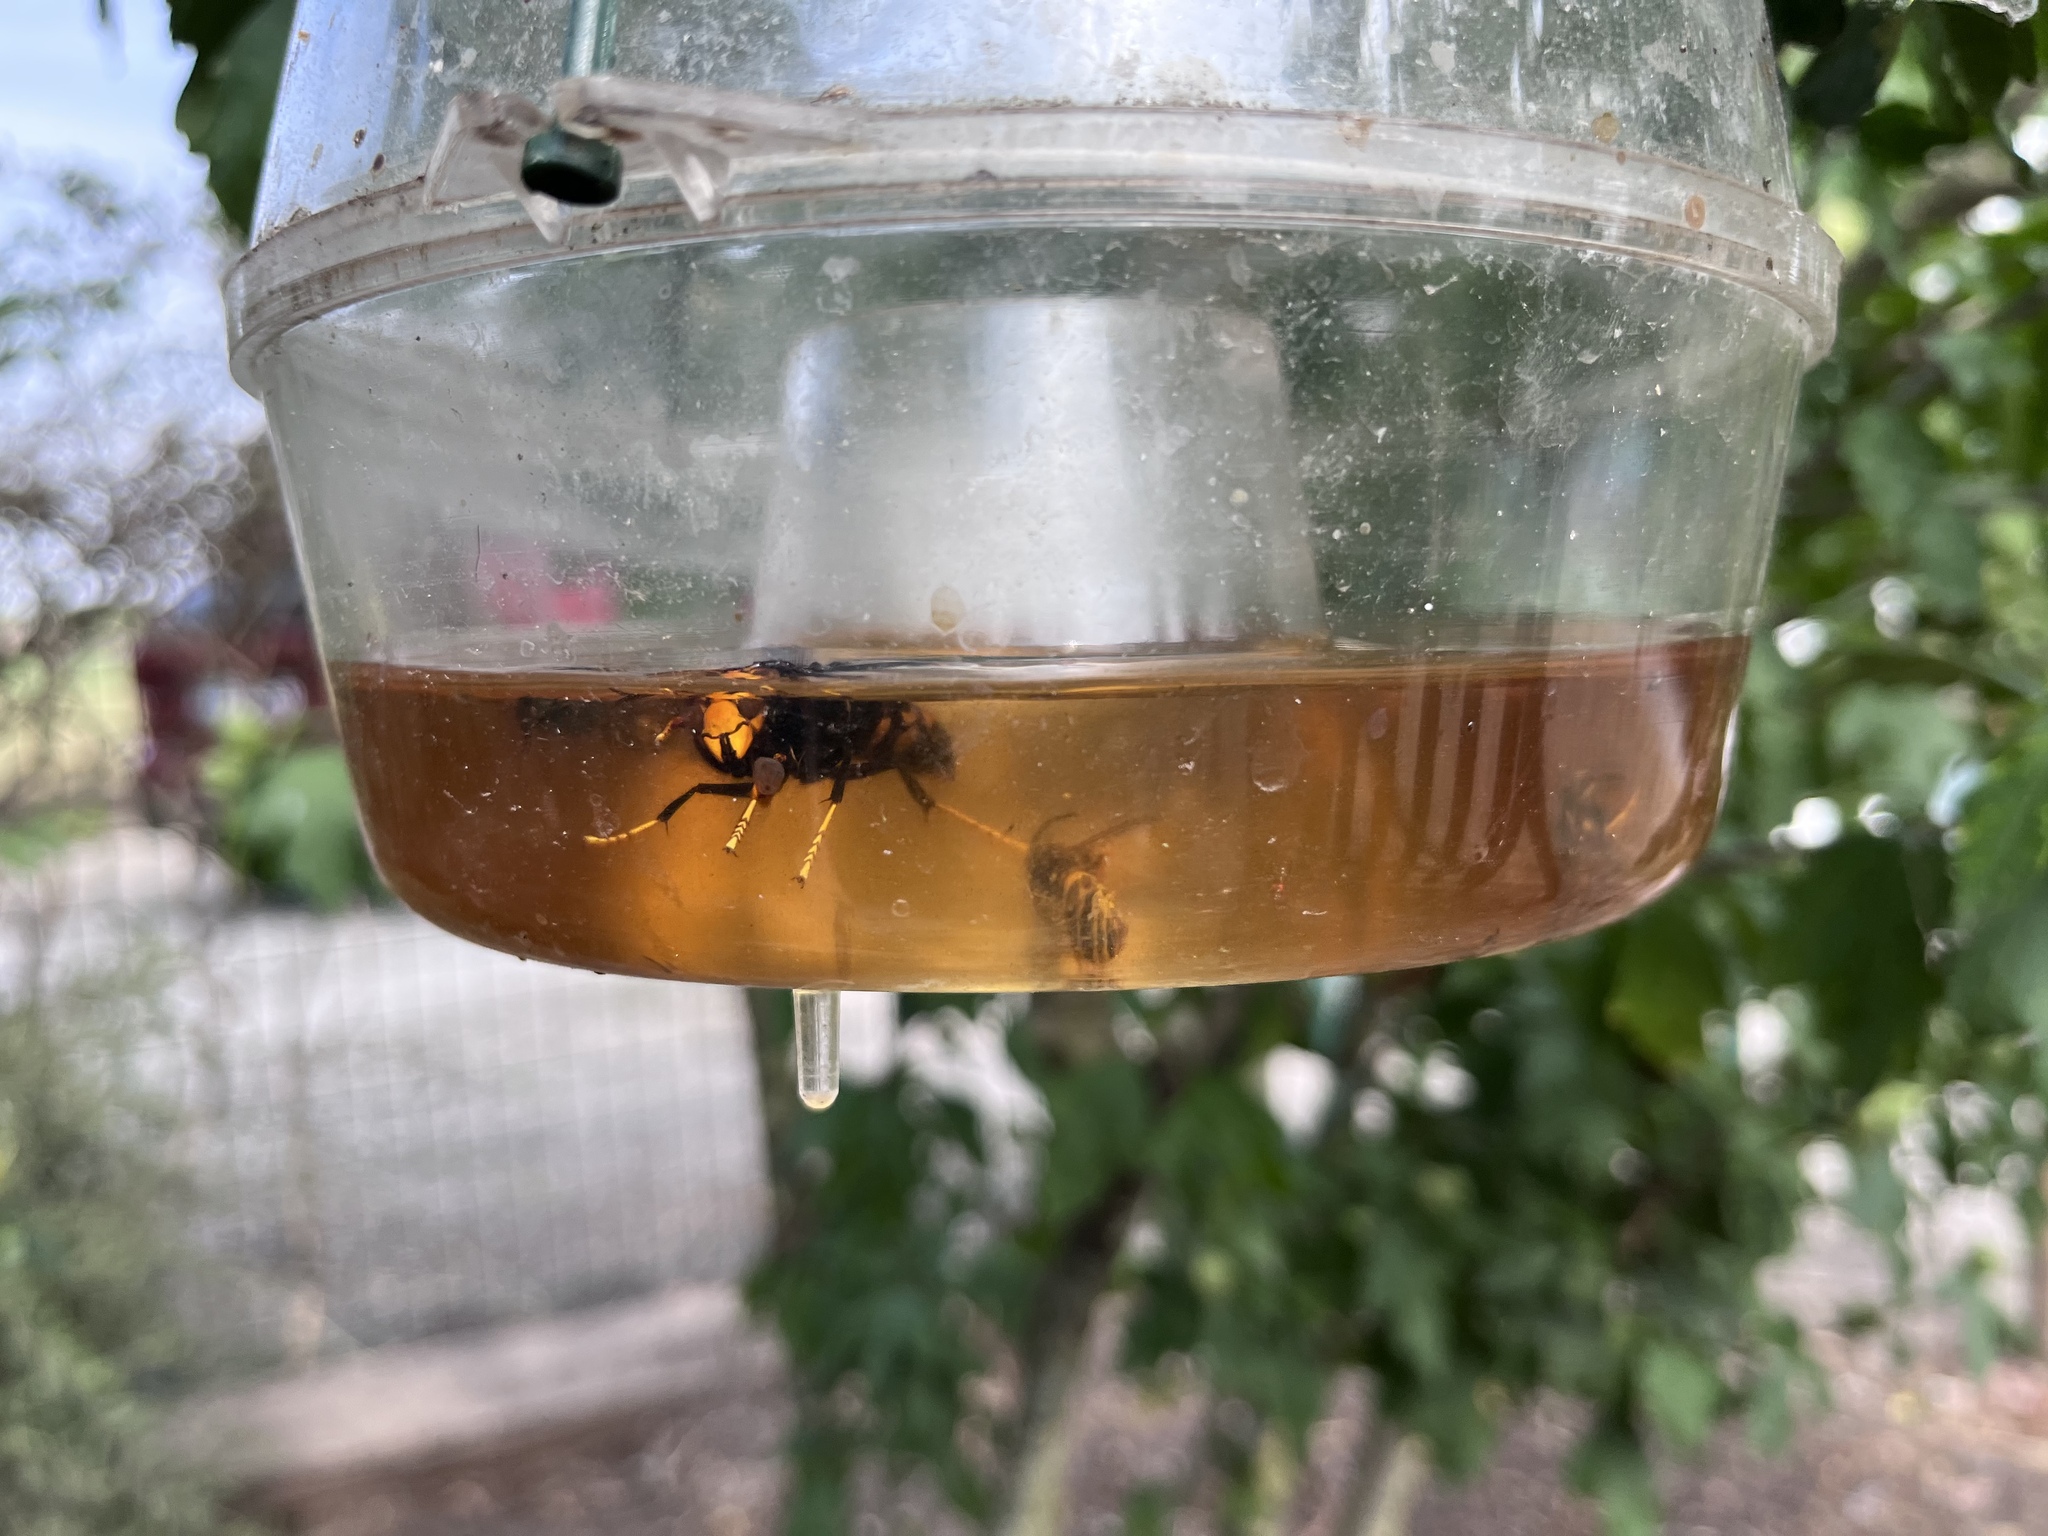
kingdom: Animalia
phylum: Arthropoda
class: Insecta
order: Hymenoptera
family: Vespidae
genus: Vespa
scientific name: Vespa velutina
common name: Asian hornet
